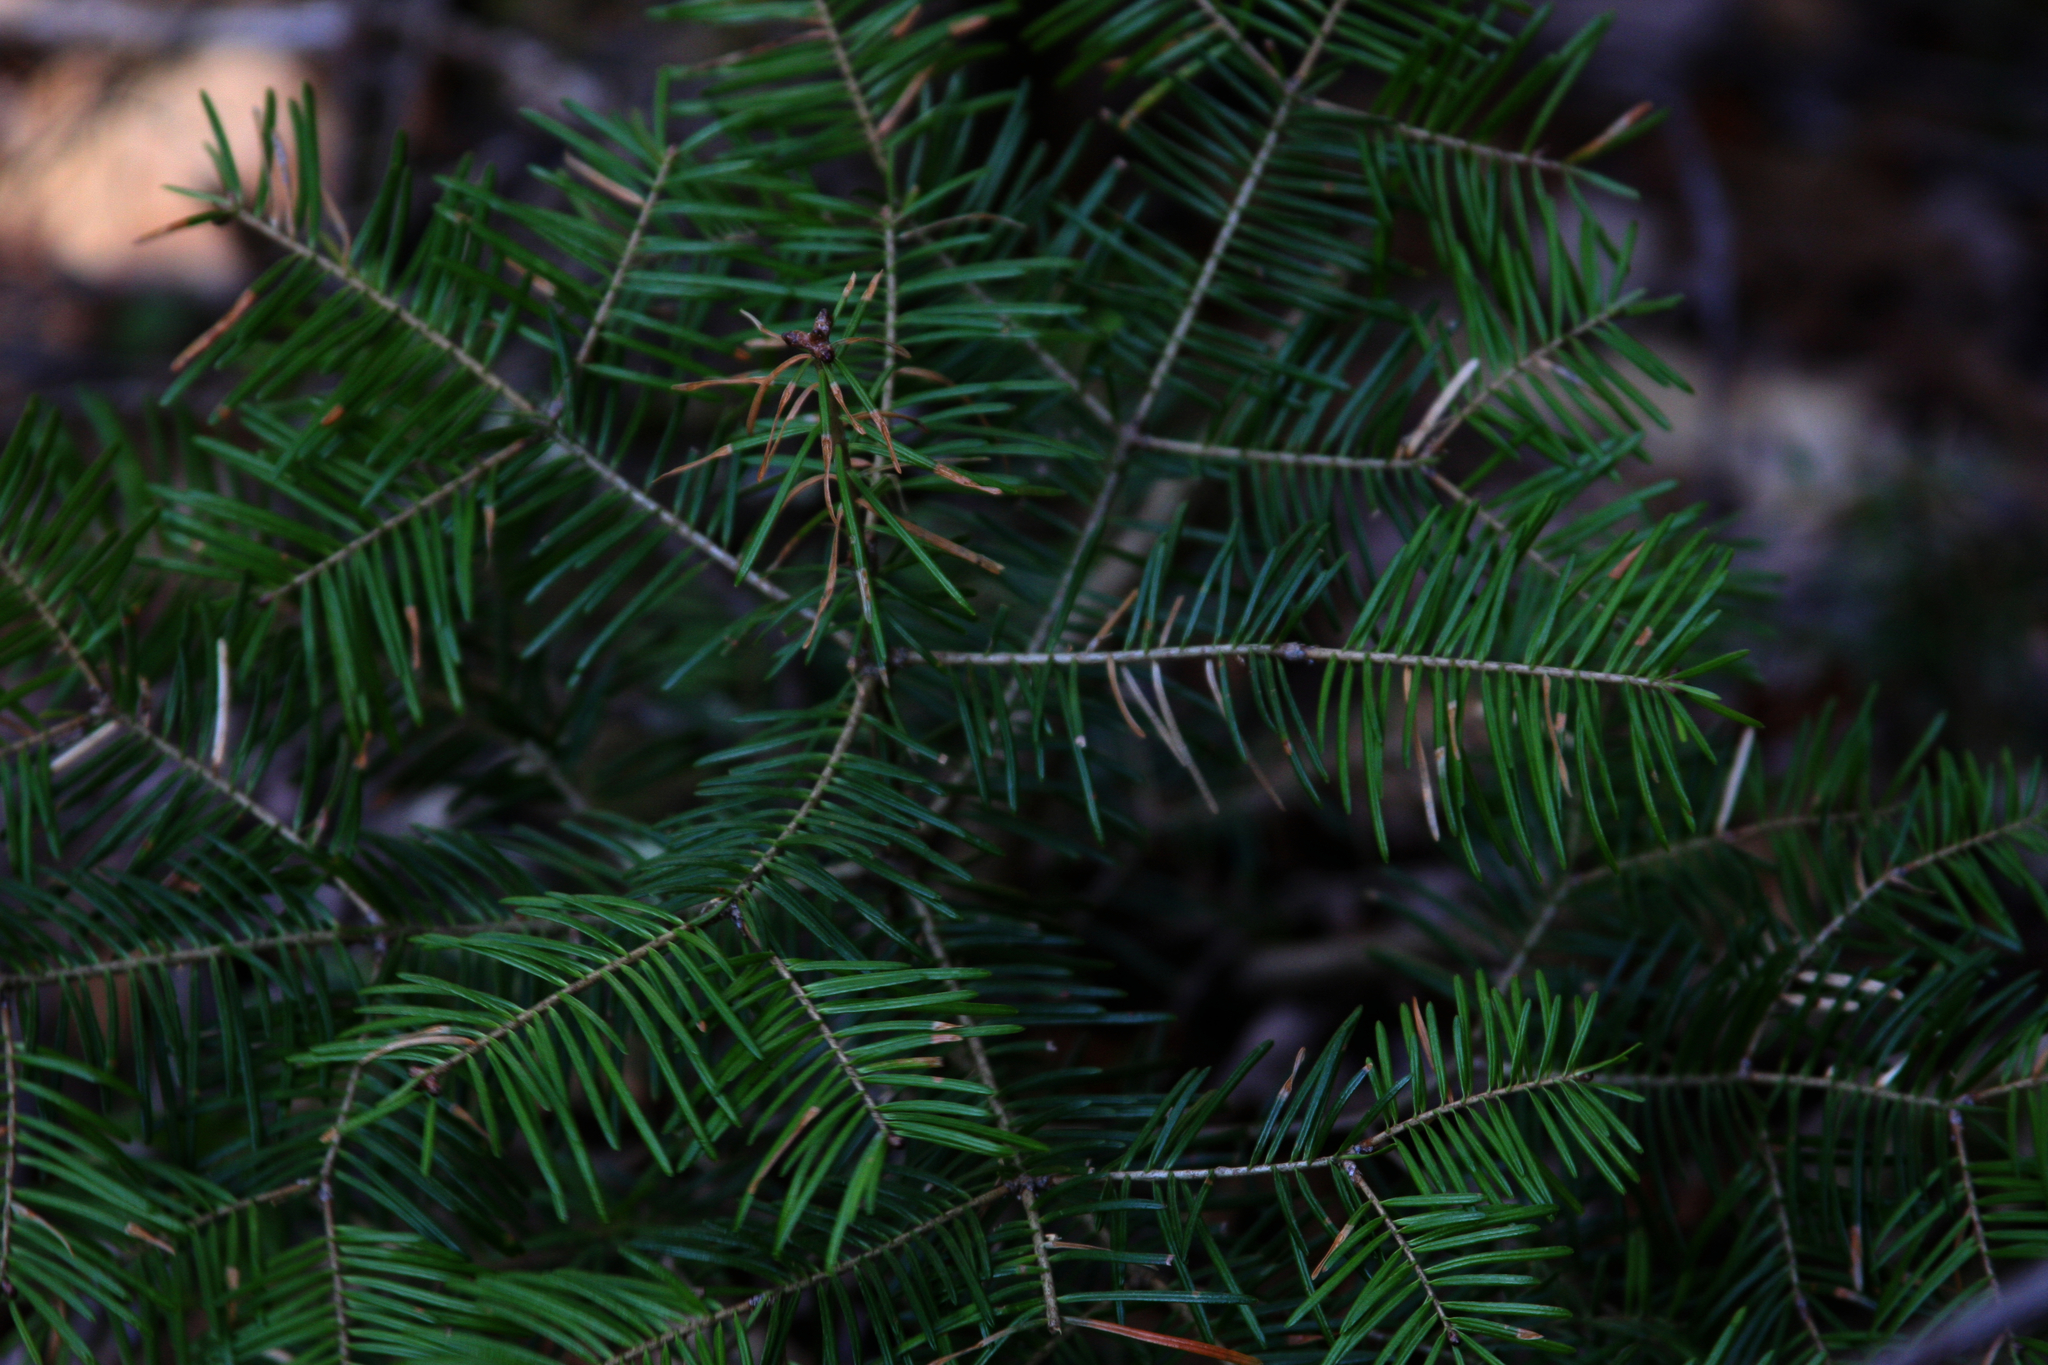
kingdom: Plantae
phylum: Tracheophyta
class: Pinopsida
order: Pinales
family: Pinaceae
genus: Abies
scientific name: Abies balsamea
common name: Balsam fir
